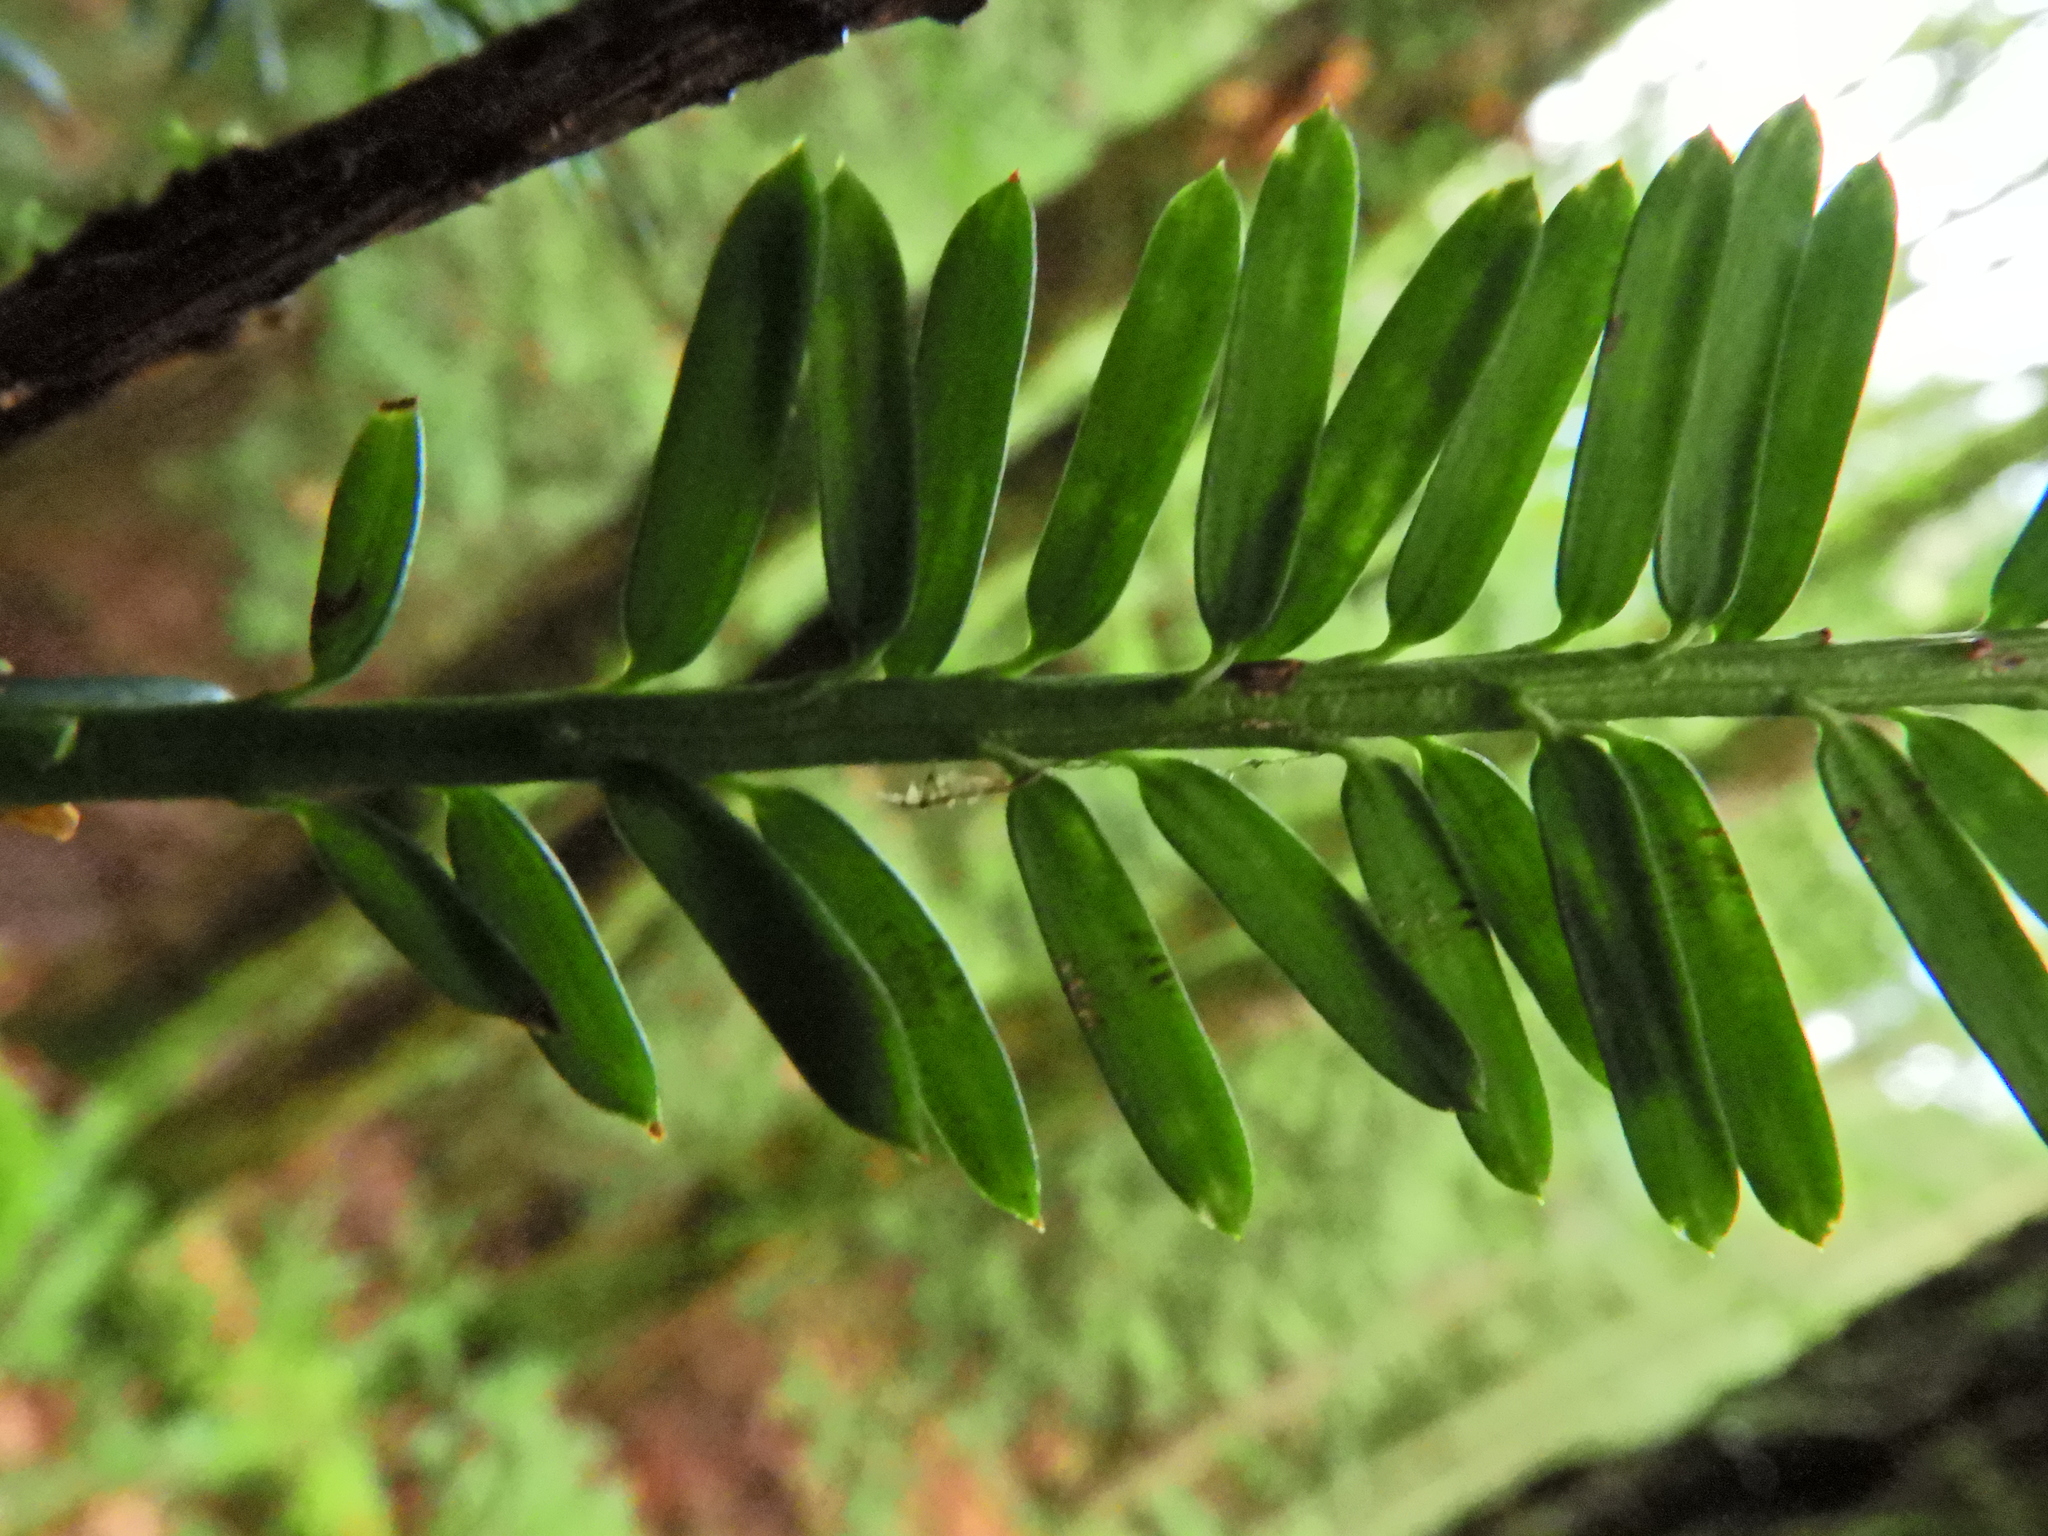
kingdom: Plantae
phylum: Tracheophyta
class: Pinopsida
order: Pinales
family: Taxaceae
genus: Taxus
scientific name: Taxus brevifolia
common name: Pacific yew
